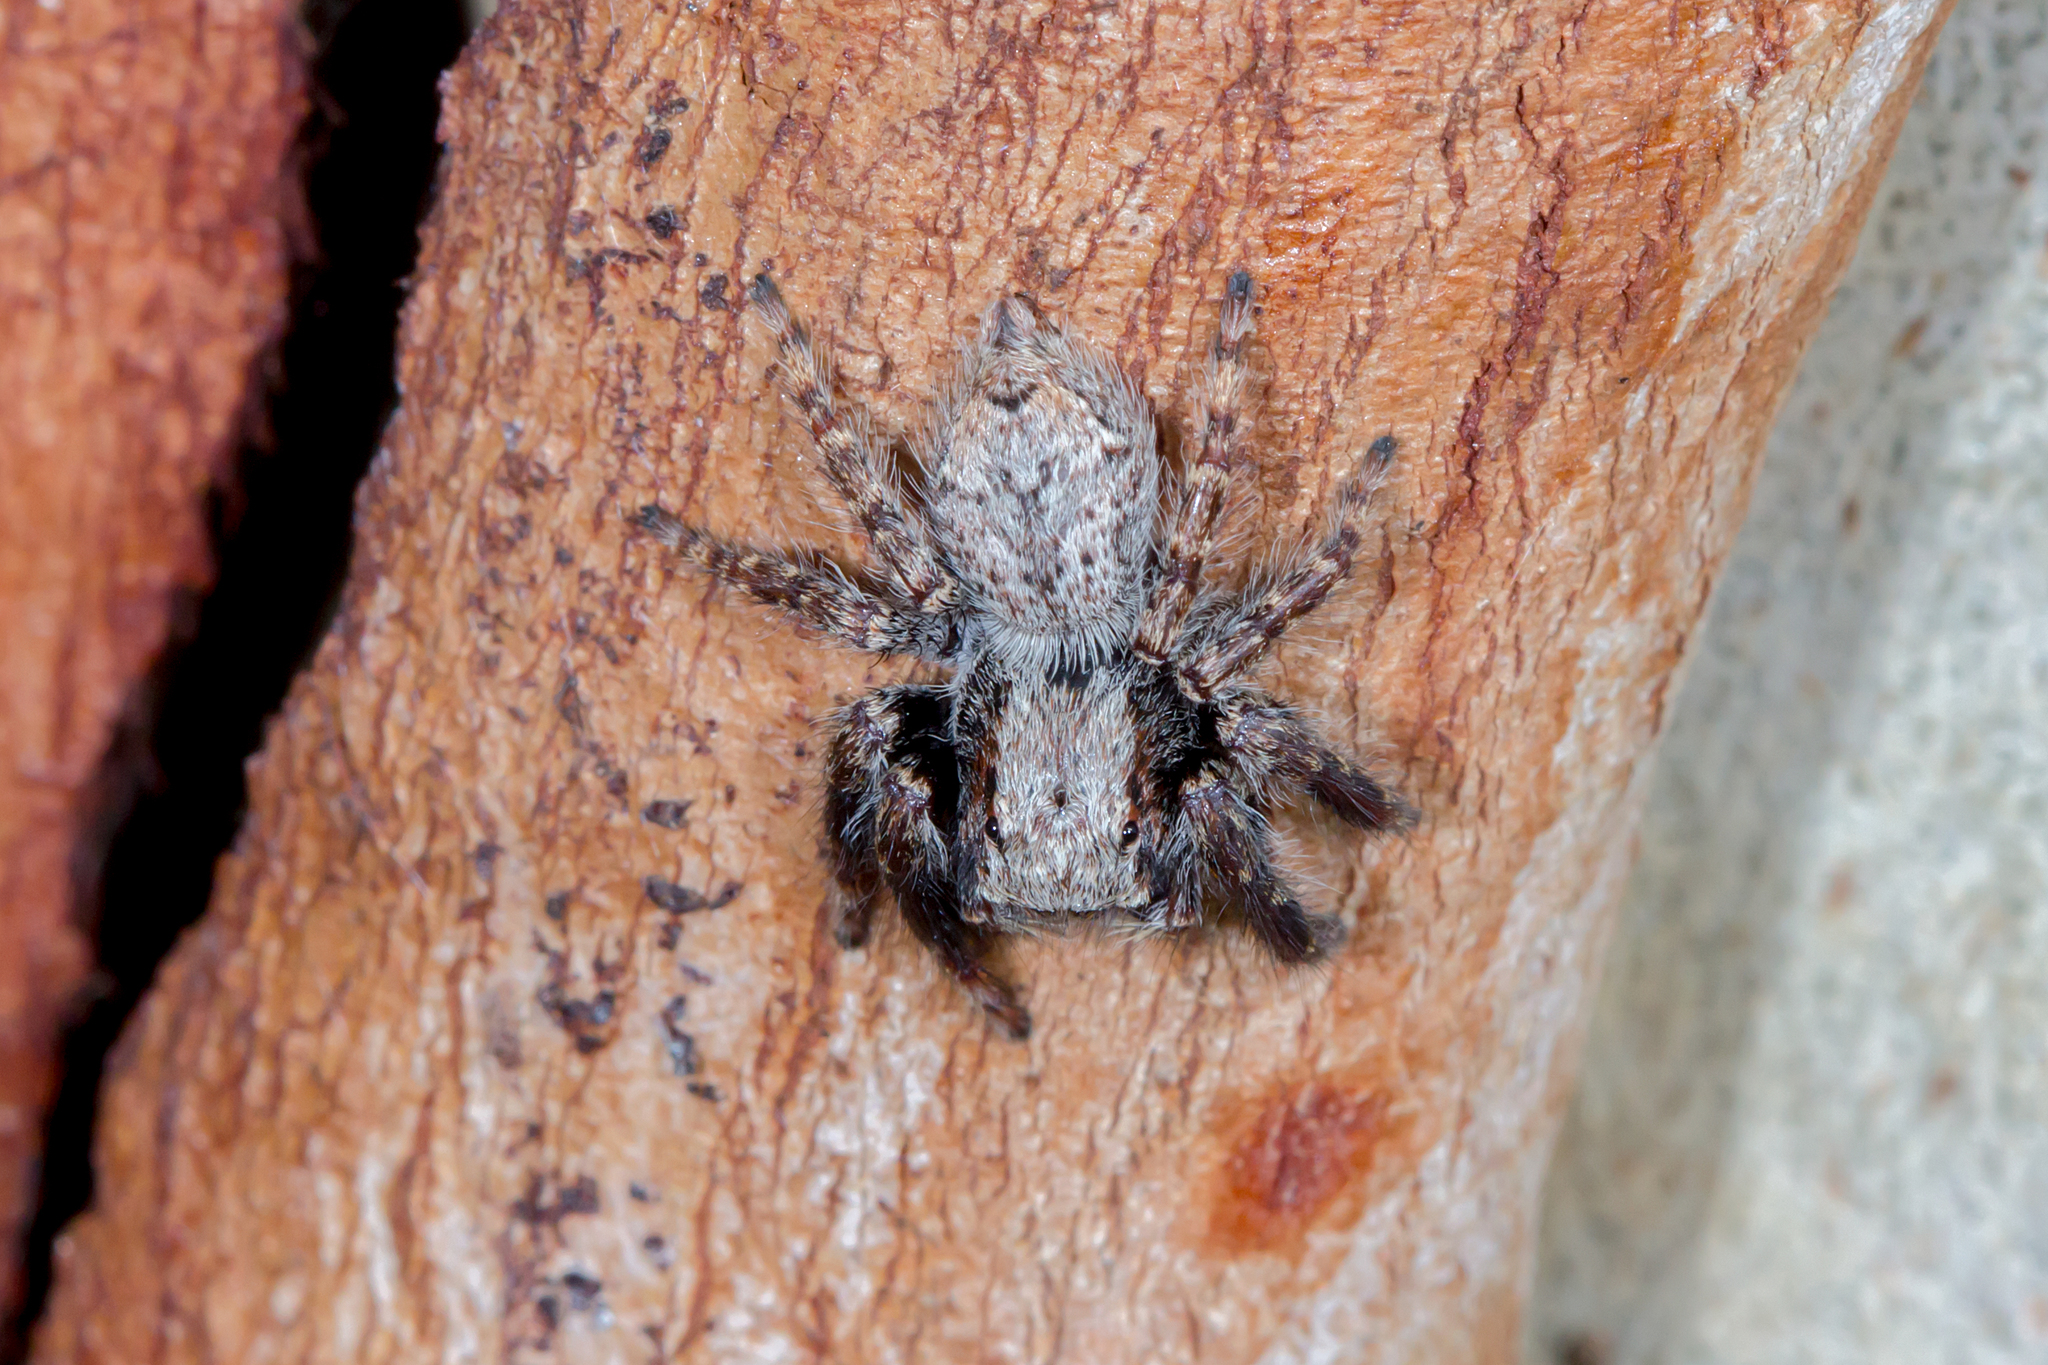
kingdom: Animalia
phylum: Arthropoda
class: Arachnida
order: Araneae
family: Salticidae
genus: Servaea
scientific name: Servaea incana
